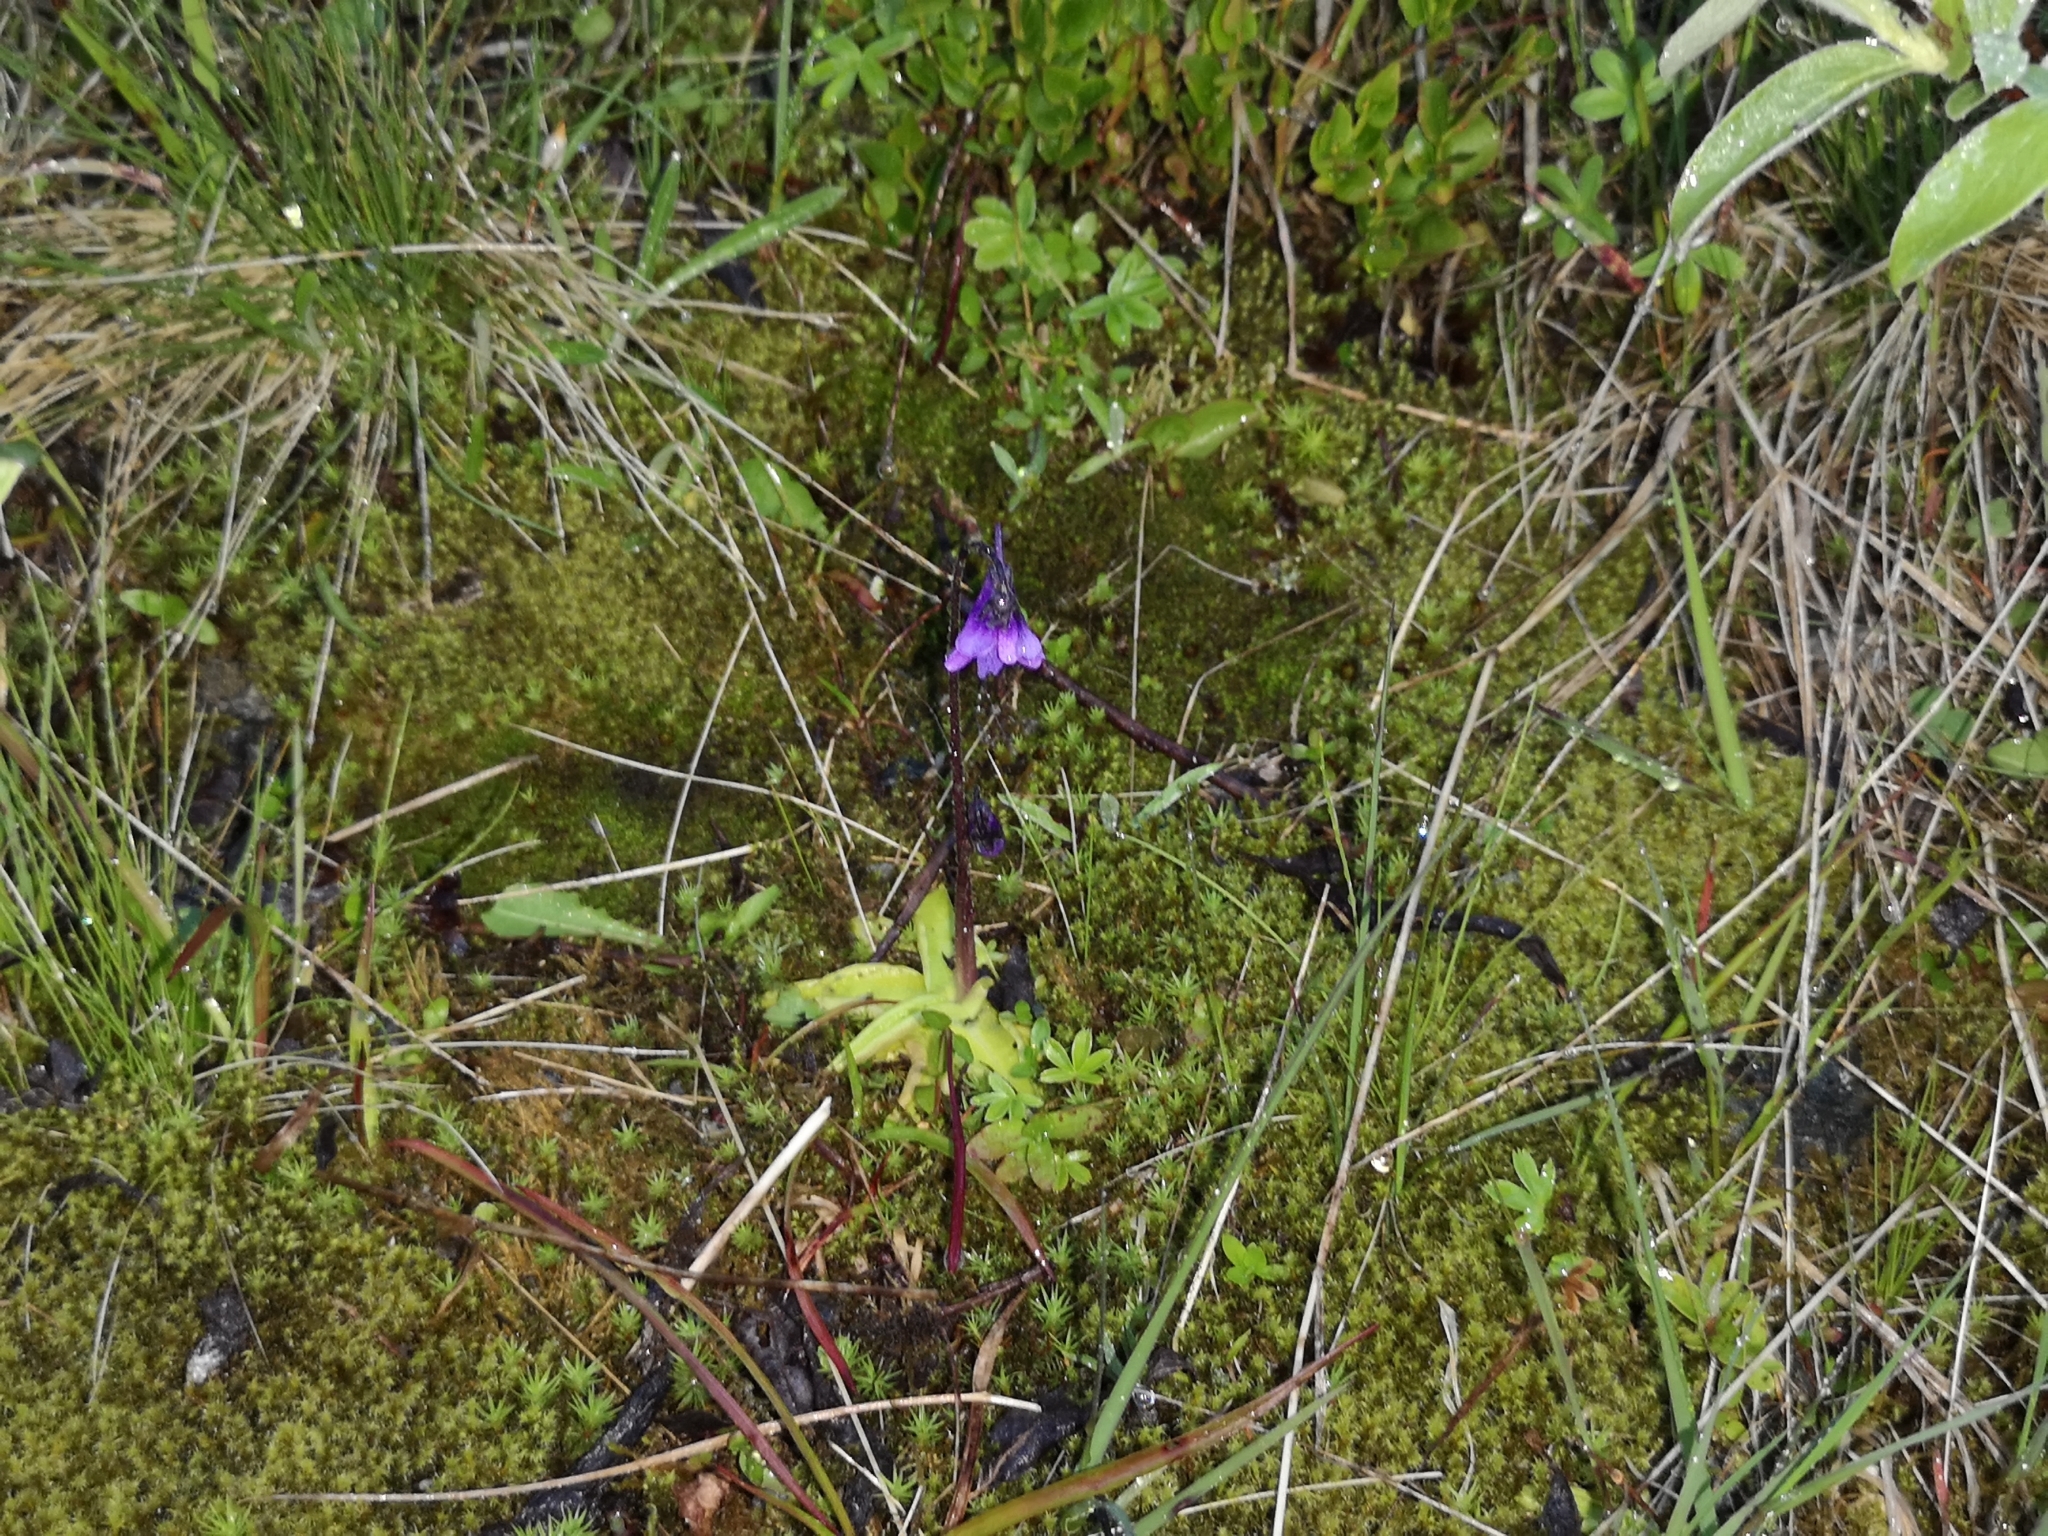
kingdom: Plantae
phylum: Tracheophyta
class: Magnoliopsida
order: Lamiales
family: Lentibulariaceae
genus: Pinguicula
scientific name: Pinguicula vulgaris
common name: Common butterwort
